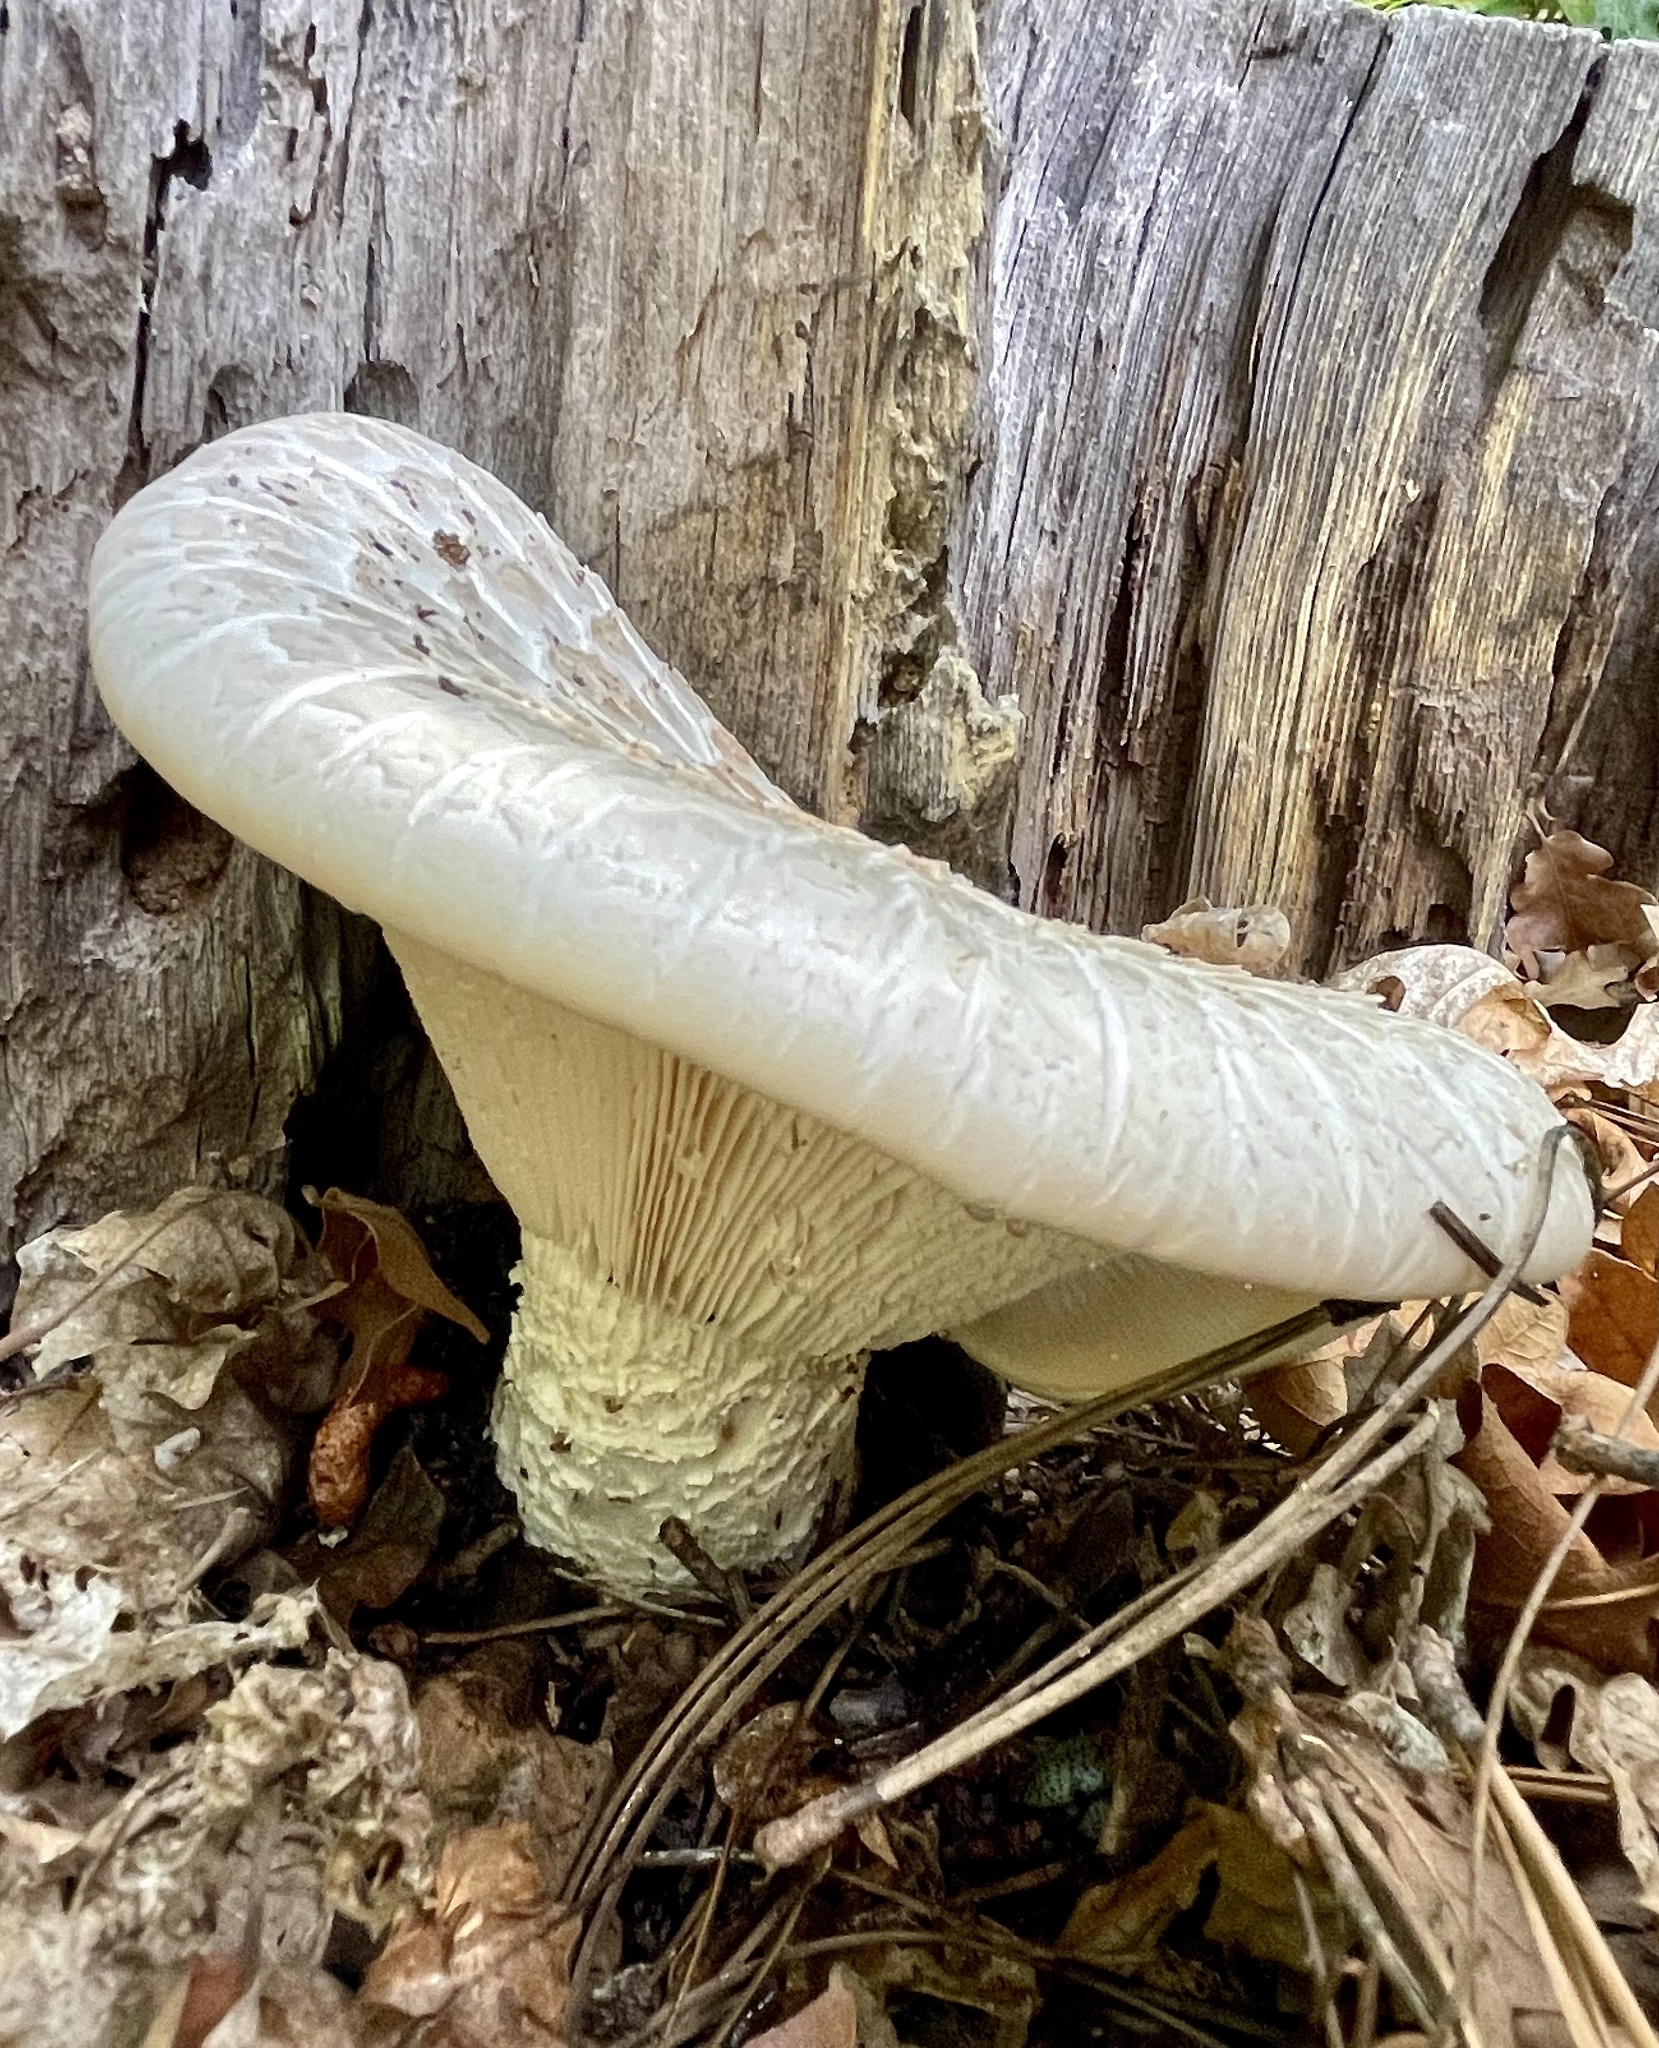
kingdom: Fungi
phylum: Basidiomycota
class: Agaricomycetes
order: Gloeophyllales
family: Gloeophyllaceae
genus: Neolentinus
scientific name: Neolentinus ponderosus
